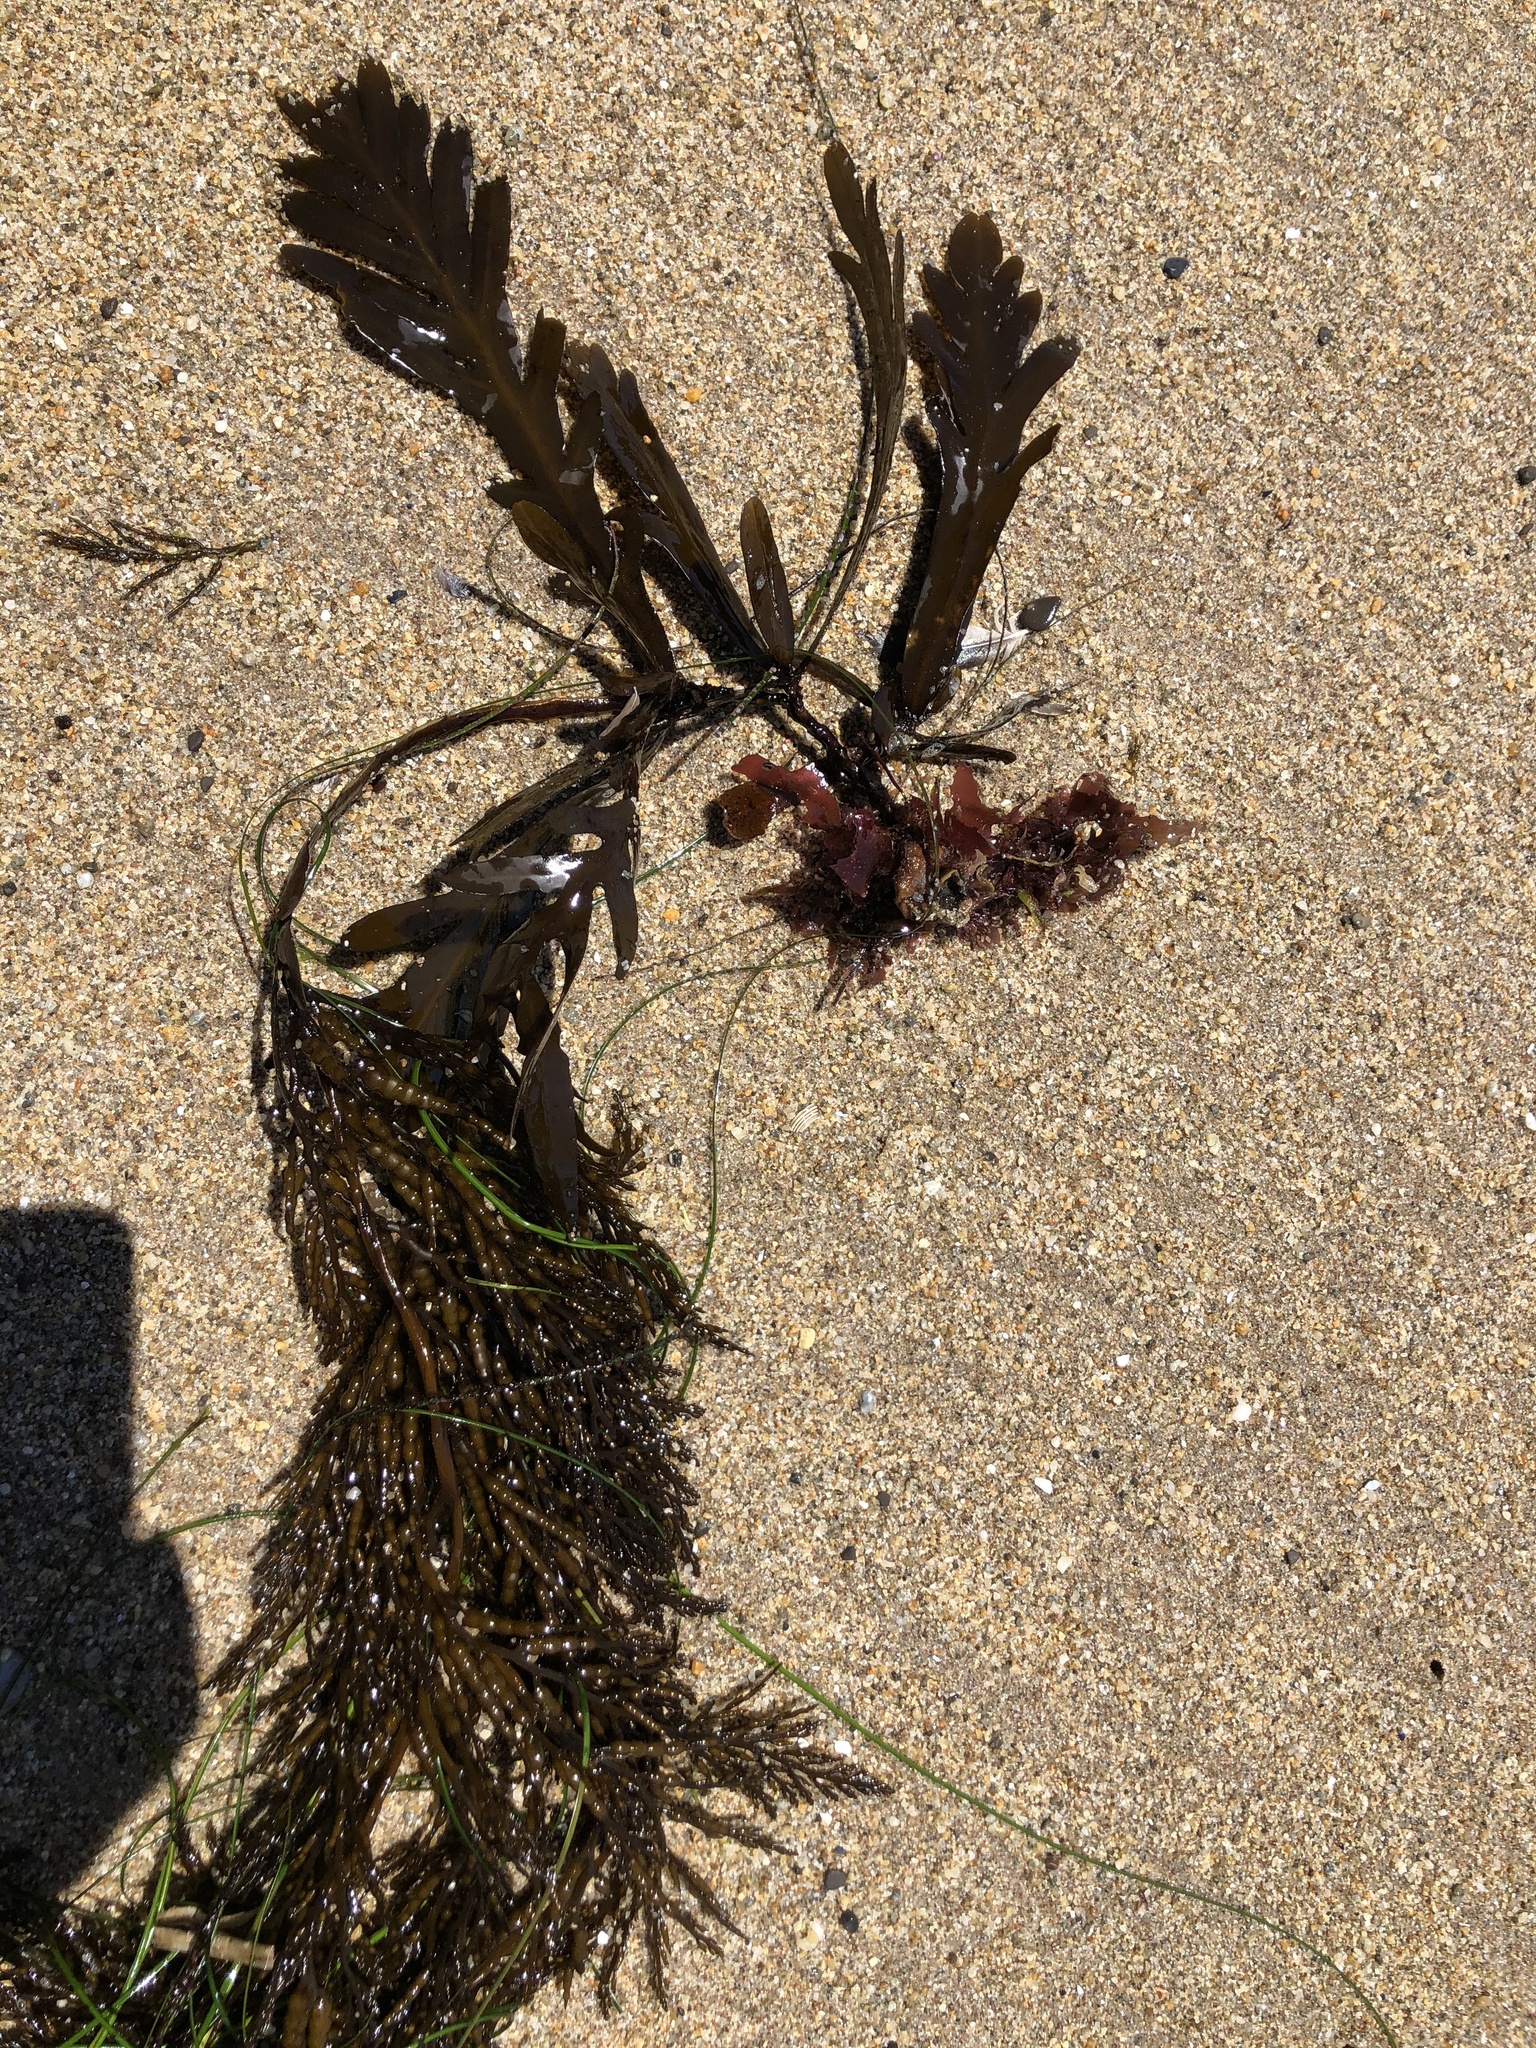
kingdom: Chromista
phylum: Ochrophyta
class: Phaeophyceae
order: Fucales
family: Sargassaceae
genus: Stephanocystis
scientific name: Stephanocystis
